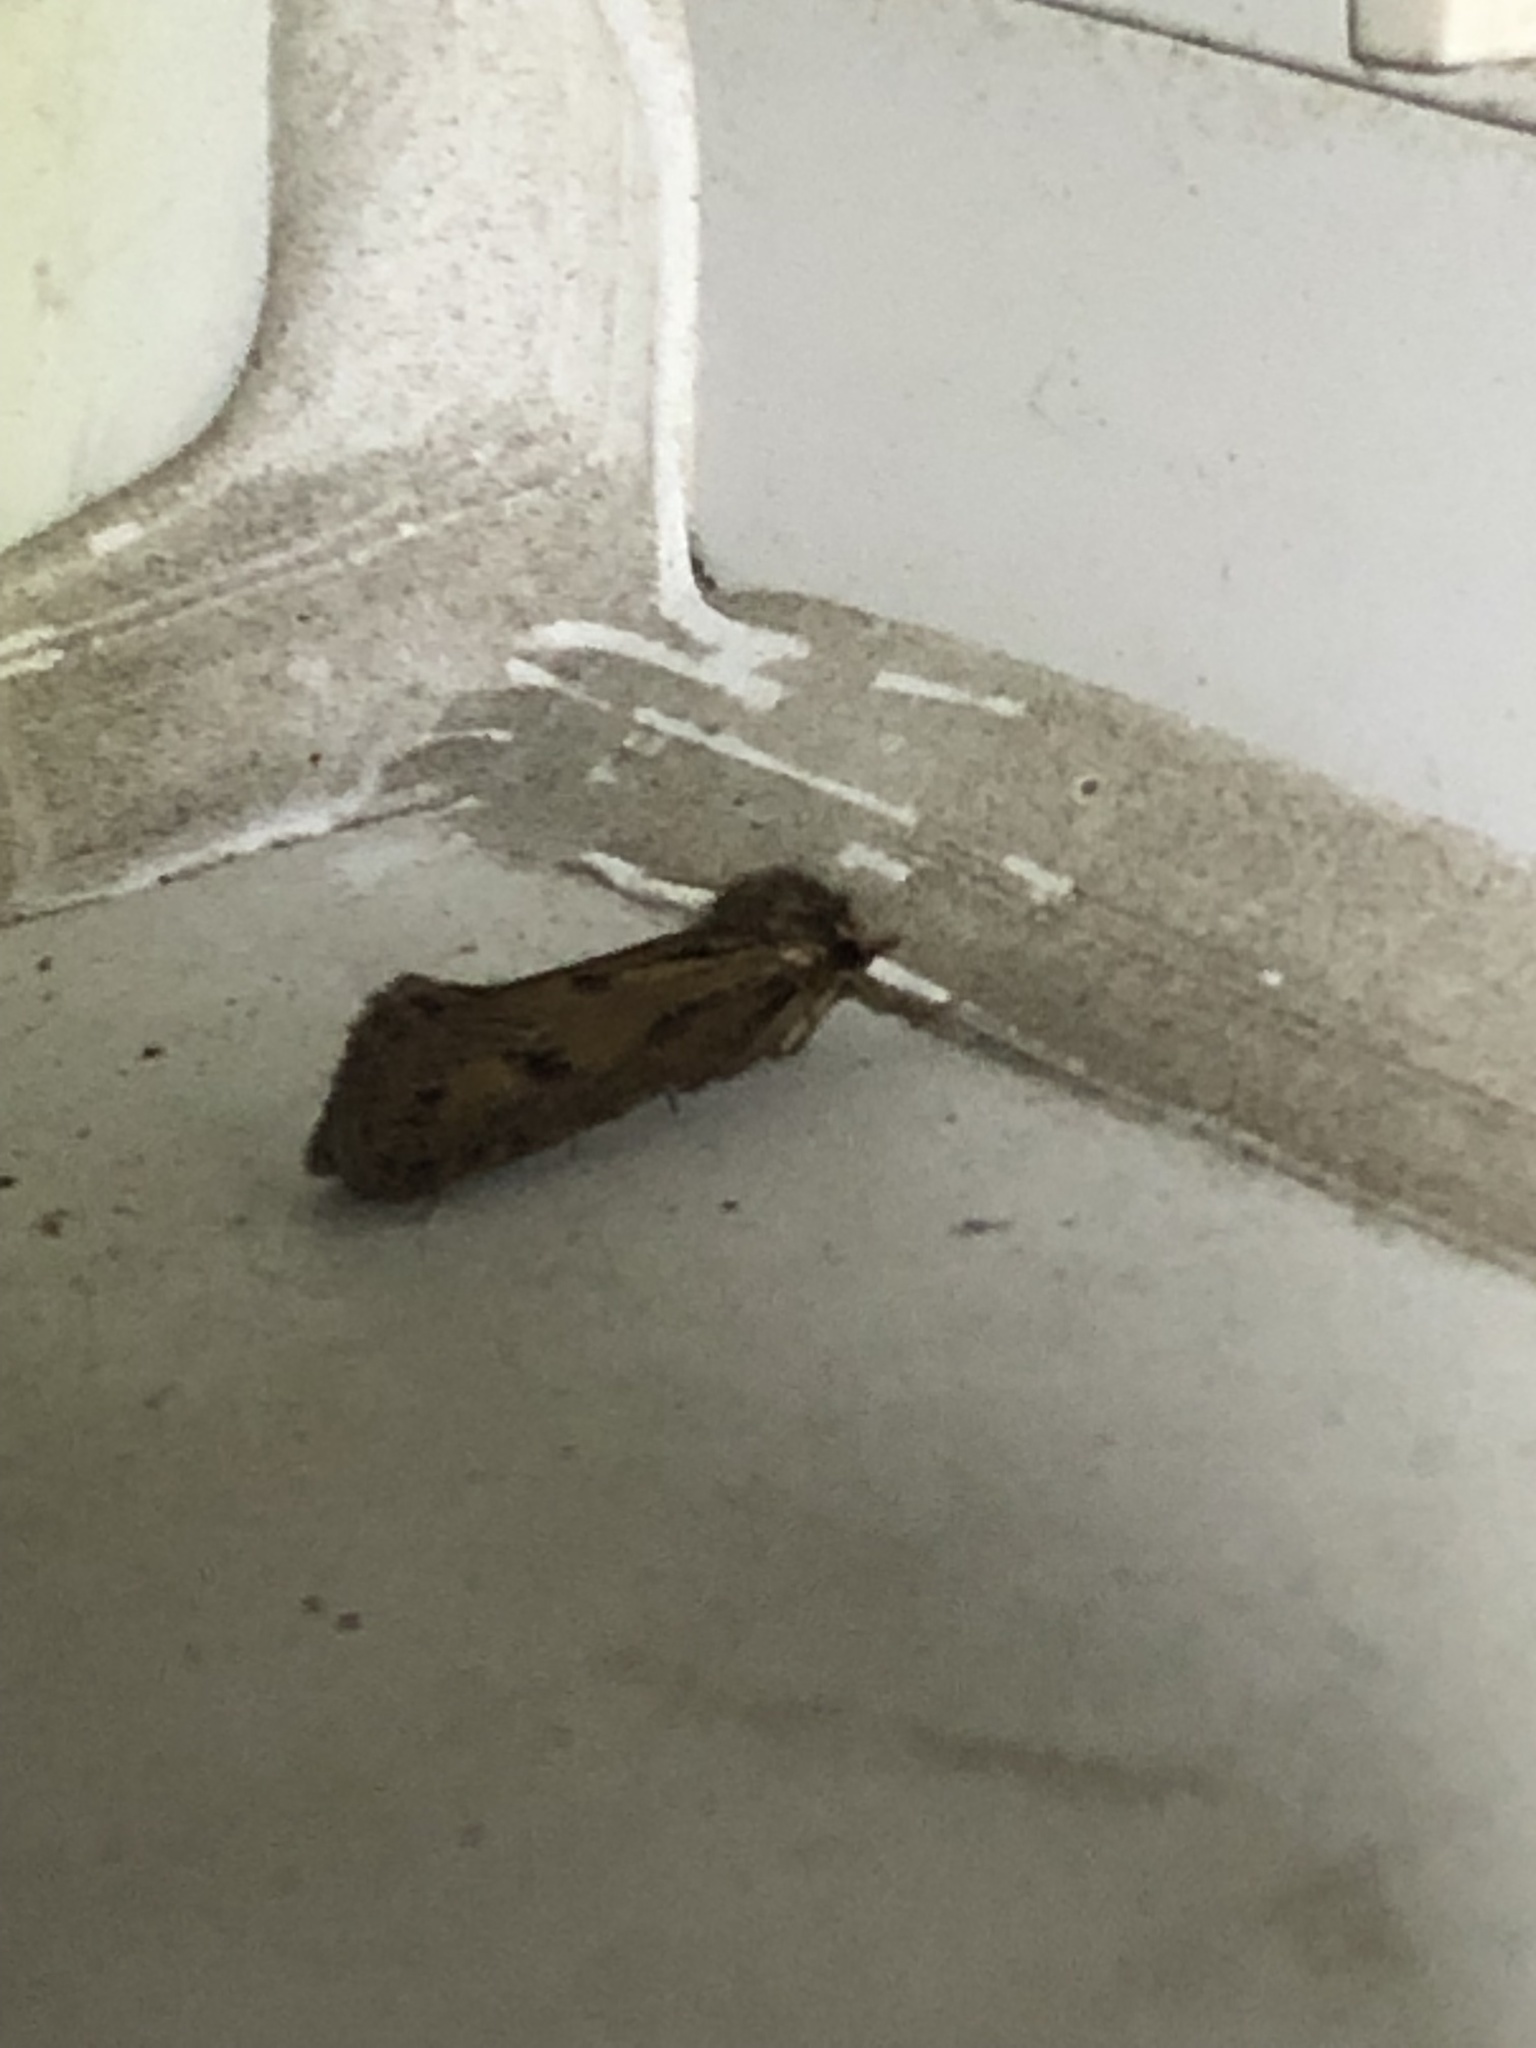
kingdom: Animalia
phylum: Arthropoda
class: Insecta
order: Lepidoptera
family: Tineidae
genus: Acrolophus
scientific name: Acrolophus popeanella
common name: Clemens' grass tubeworm moth
